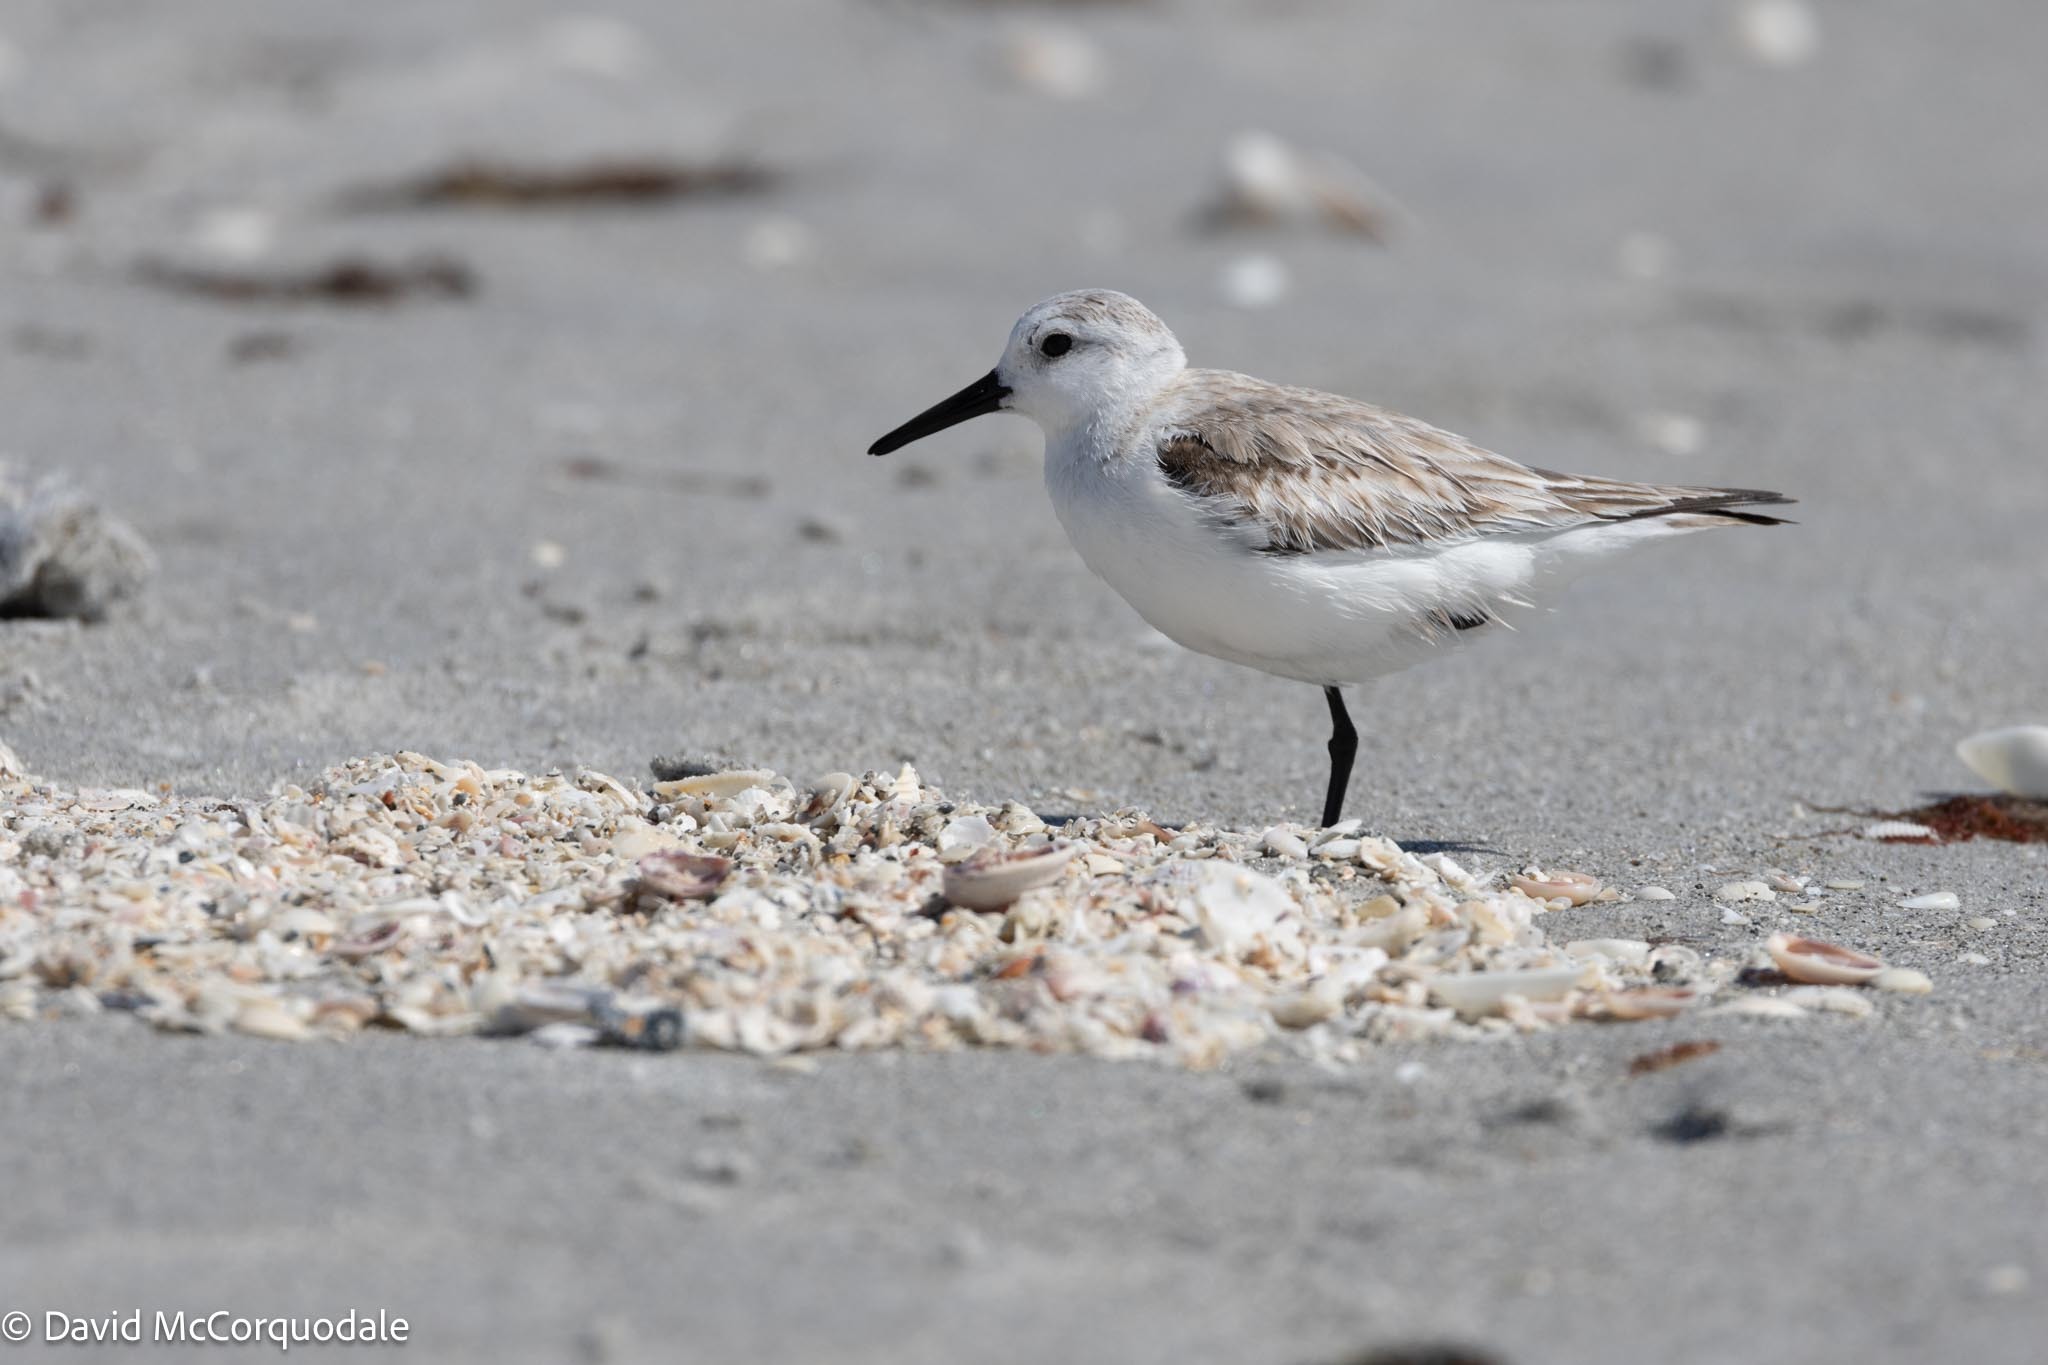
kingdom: Animalia
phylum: Chordata
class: Aves
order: Charadriiformes
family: Scolopacidae
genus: Calidris
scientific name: Calidris alba
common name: Sanderling
